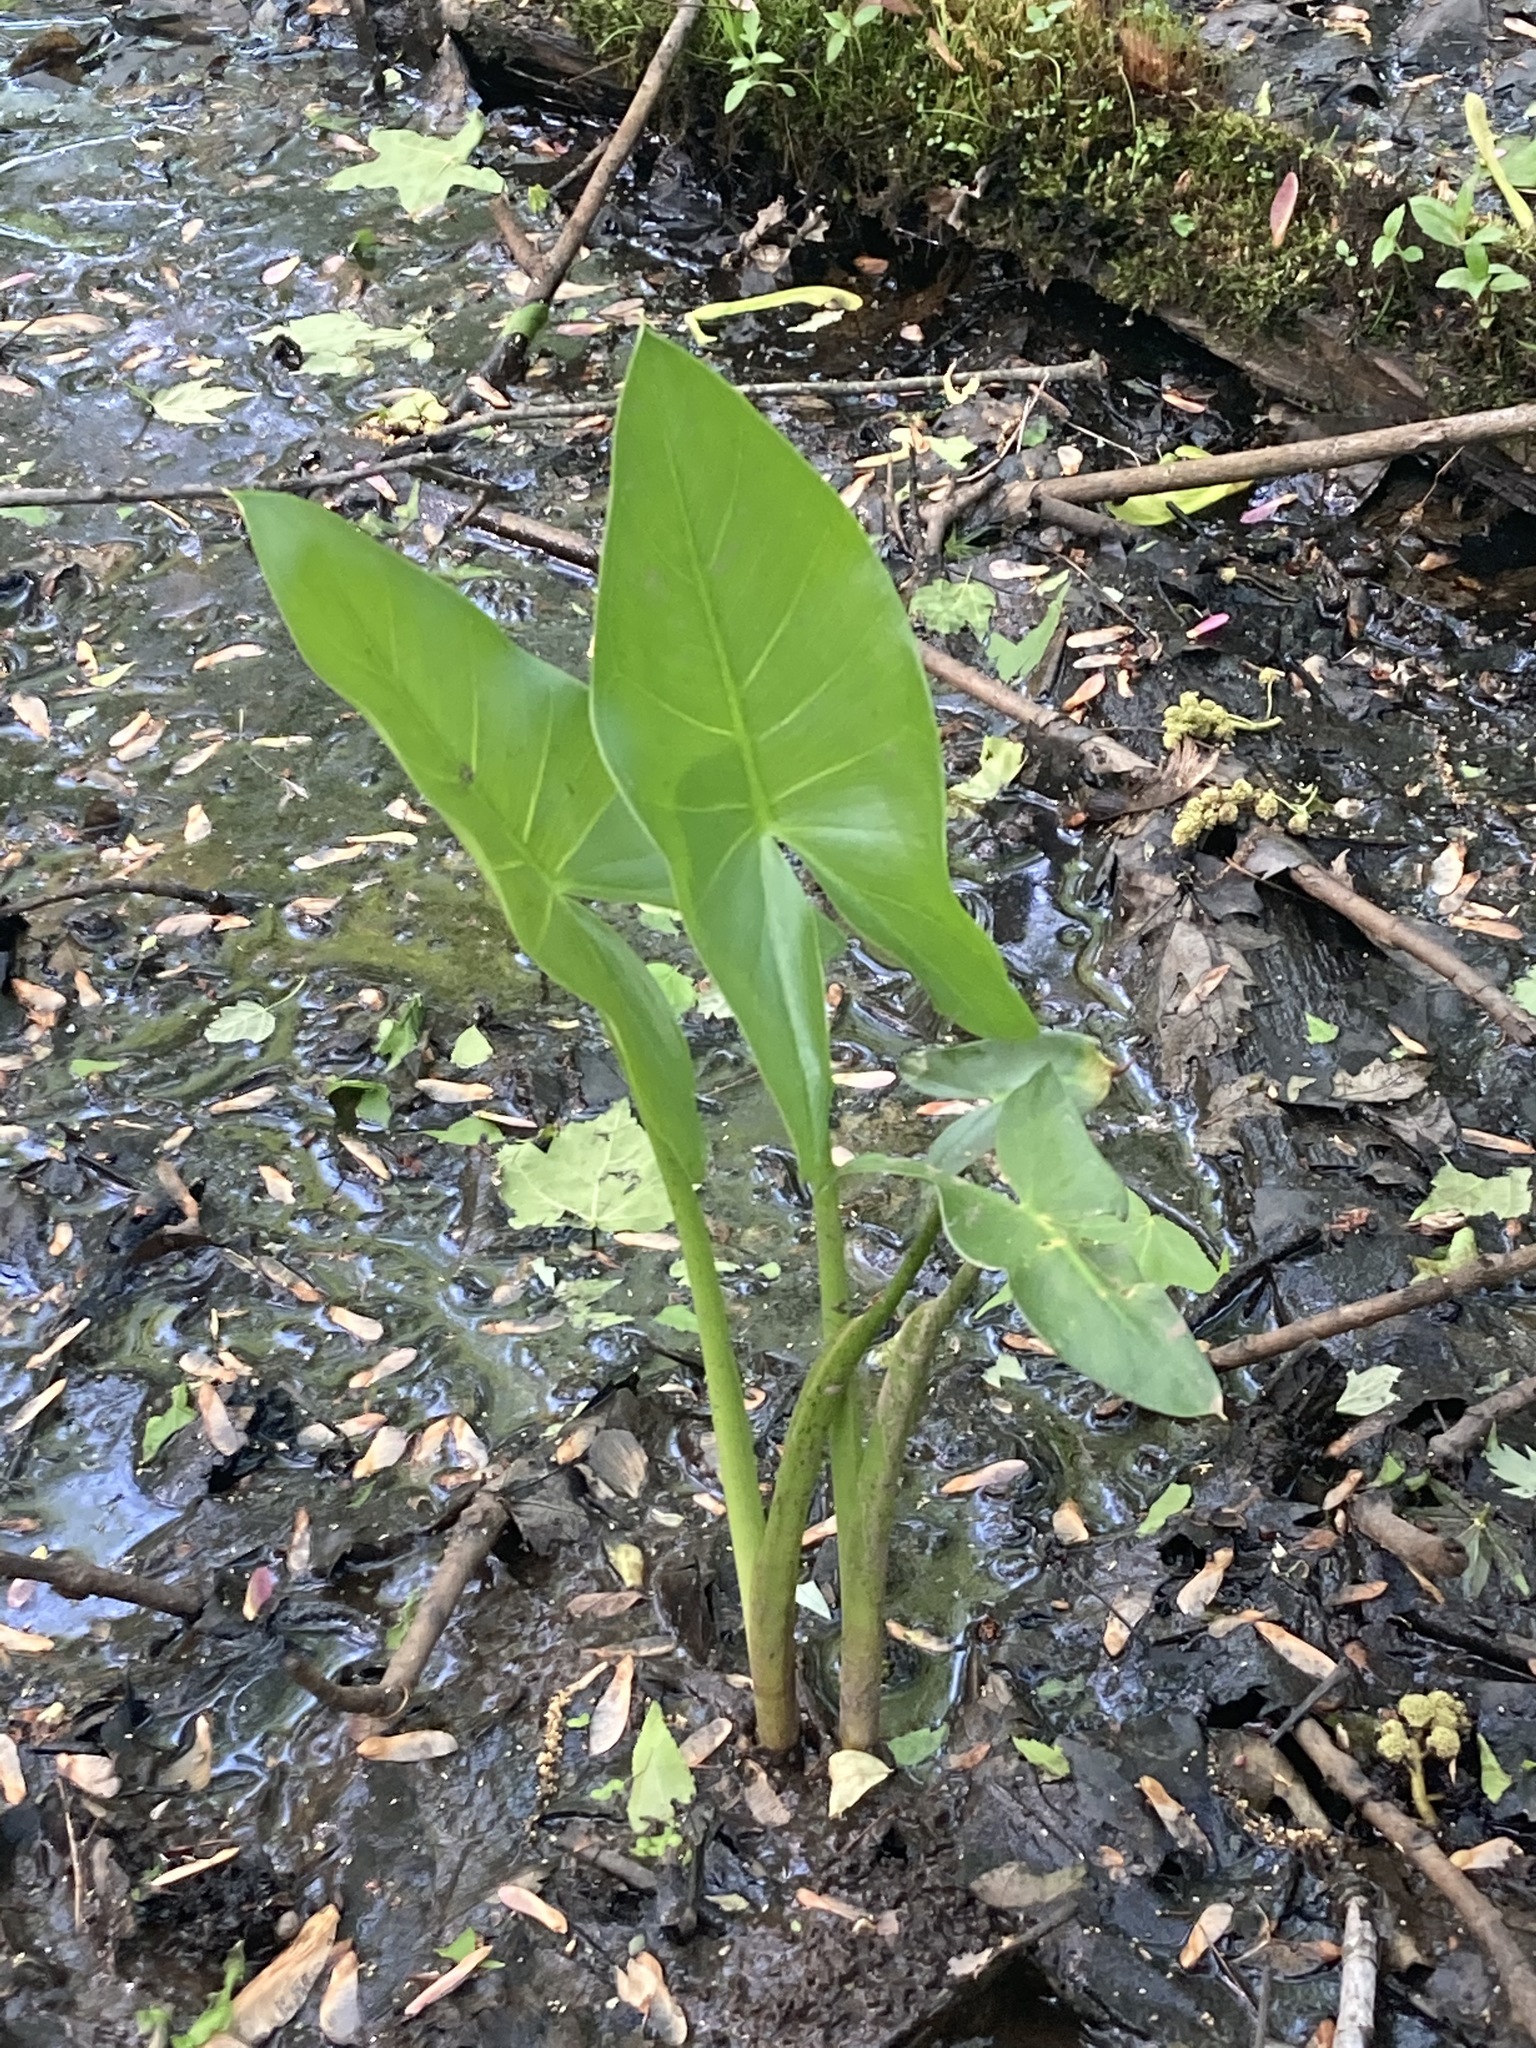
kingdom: Plantae
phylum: Tracheophyta
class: Liliopsida
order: Alismatales
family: Araceae
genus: Peltandra
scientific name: Peltandra virginica
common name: Arrow arum
